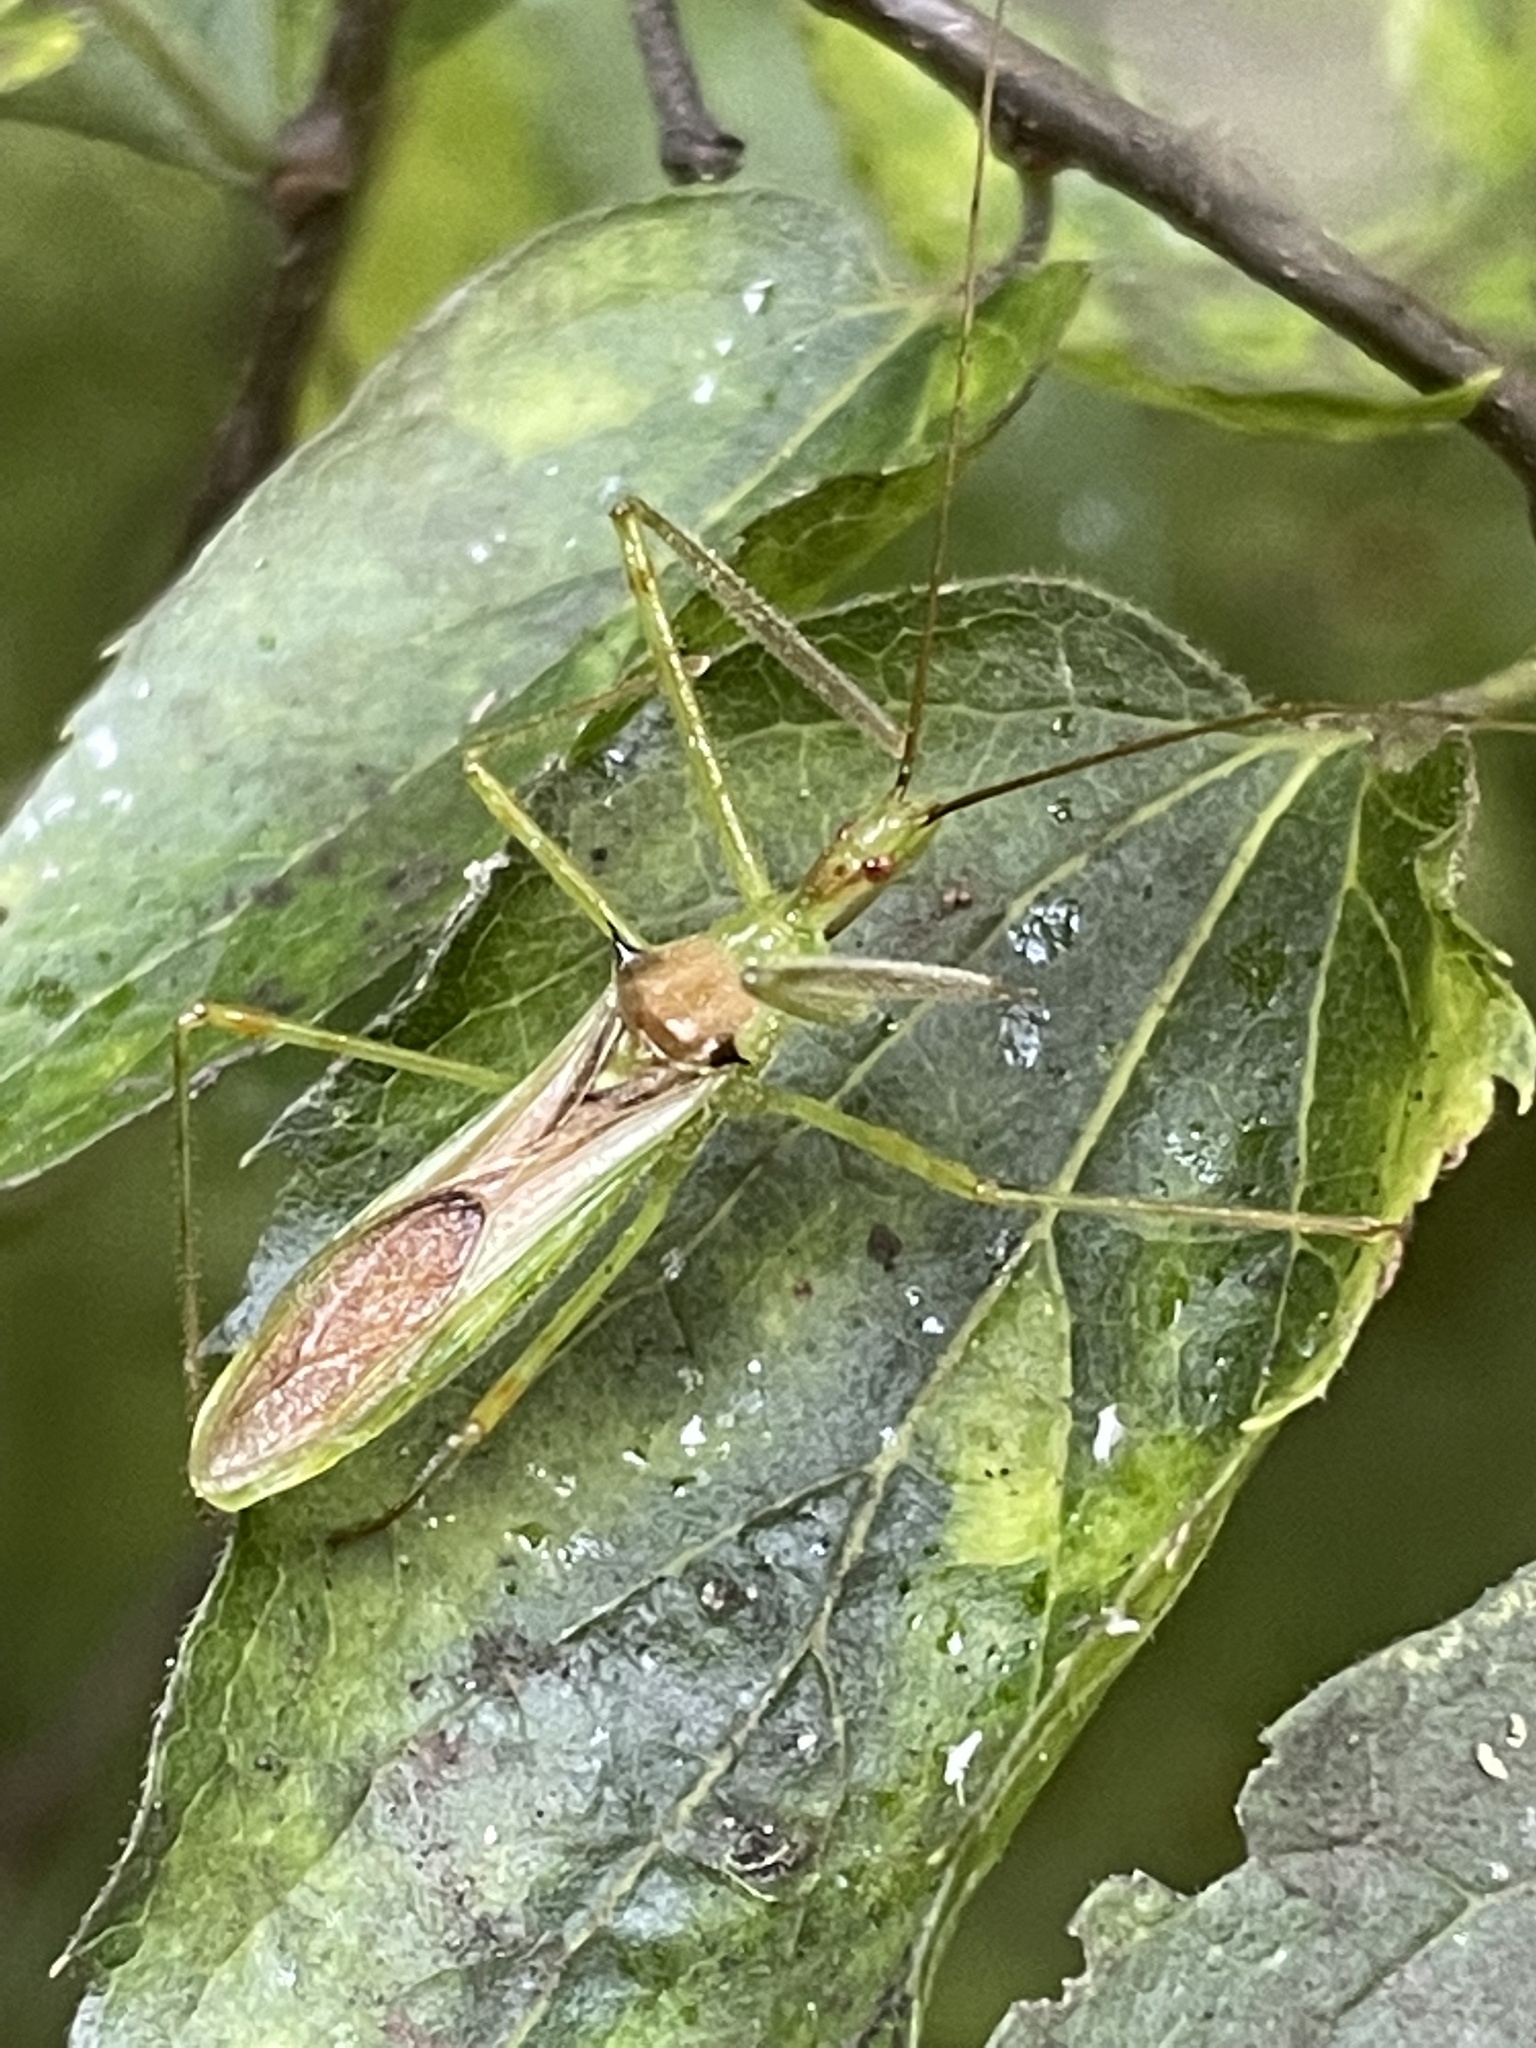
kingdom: Animalia
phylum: Arthropoda
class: Insecta
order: Hemiptera
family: Reduviidae
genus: Zelus
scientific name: Zelus luridus
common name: Pale green assassin bug
